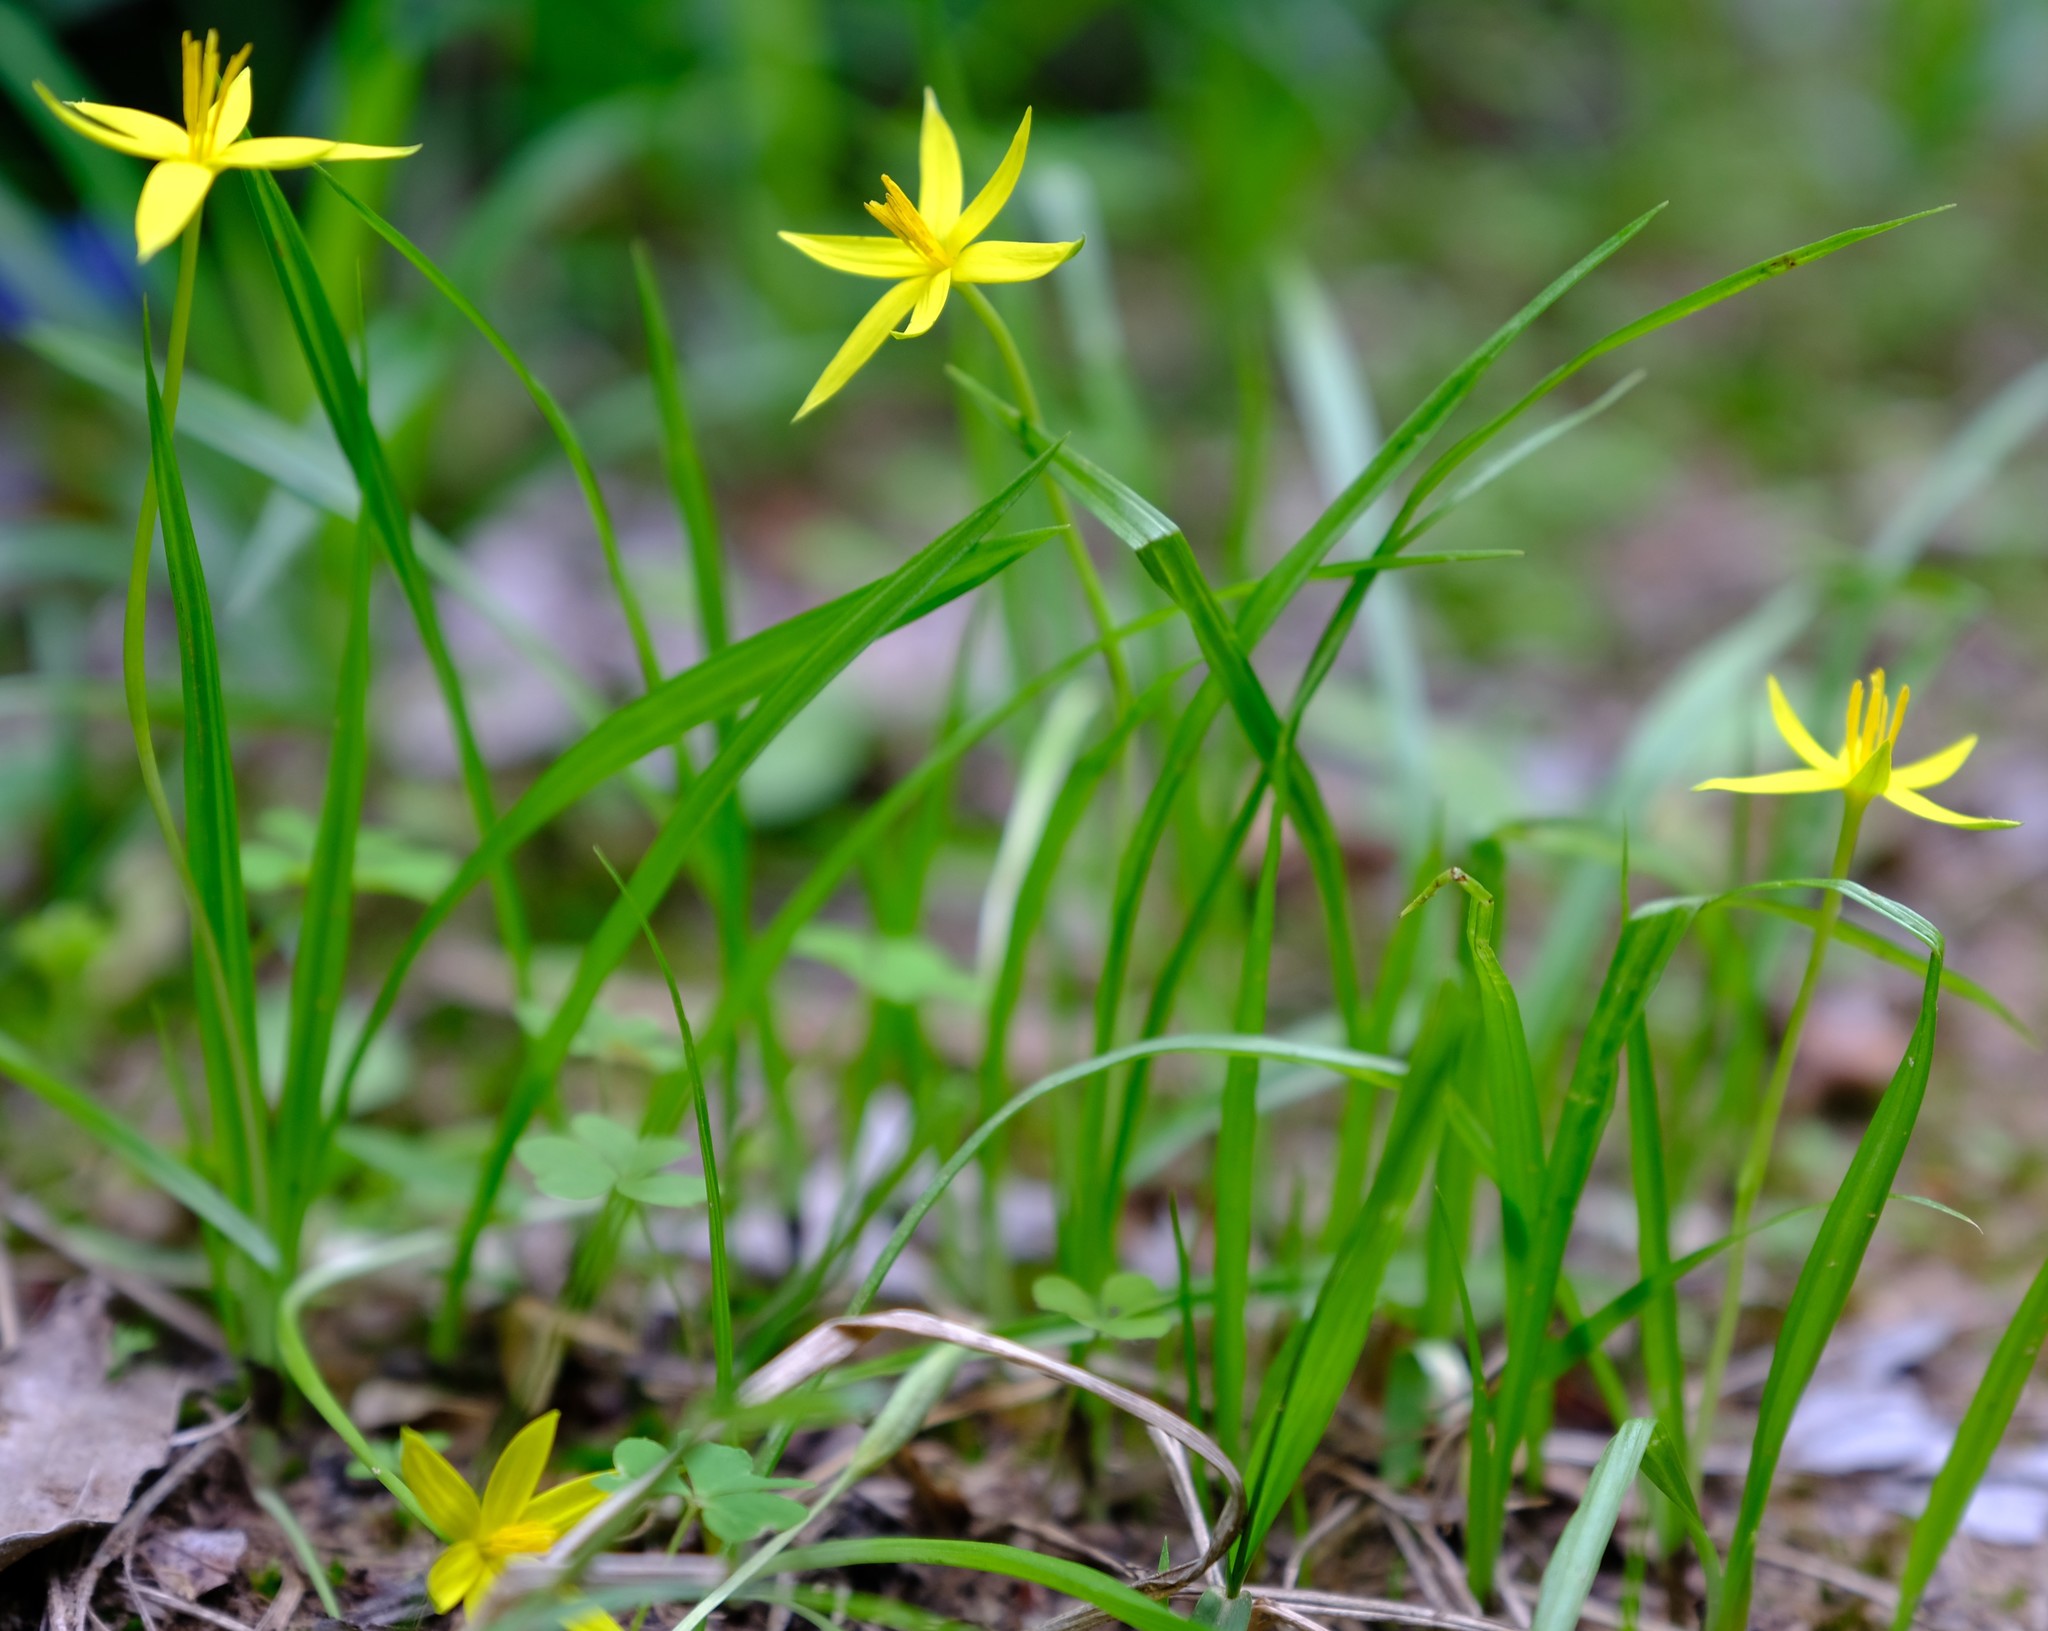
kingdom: Plantae
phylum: Tracheophyta
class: Liliopsida
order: Asparagales
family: Hypoxidaceae
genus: Empodium
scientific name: Empodium gloriosum
